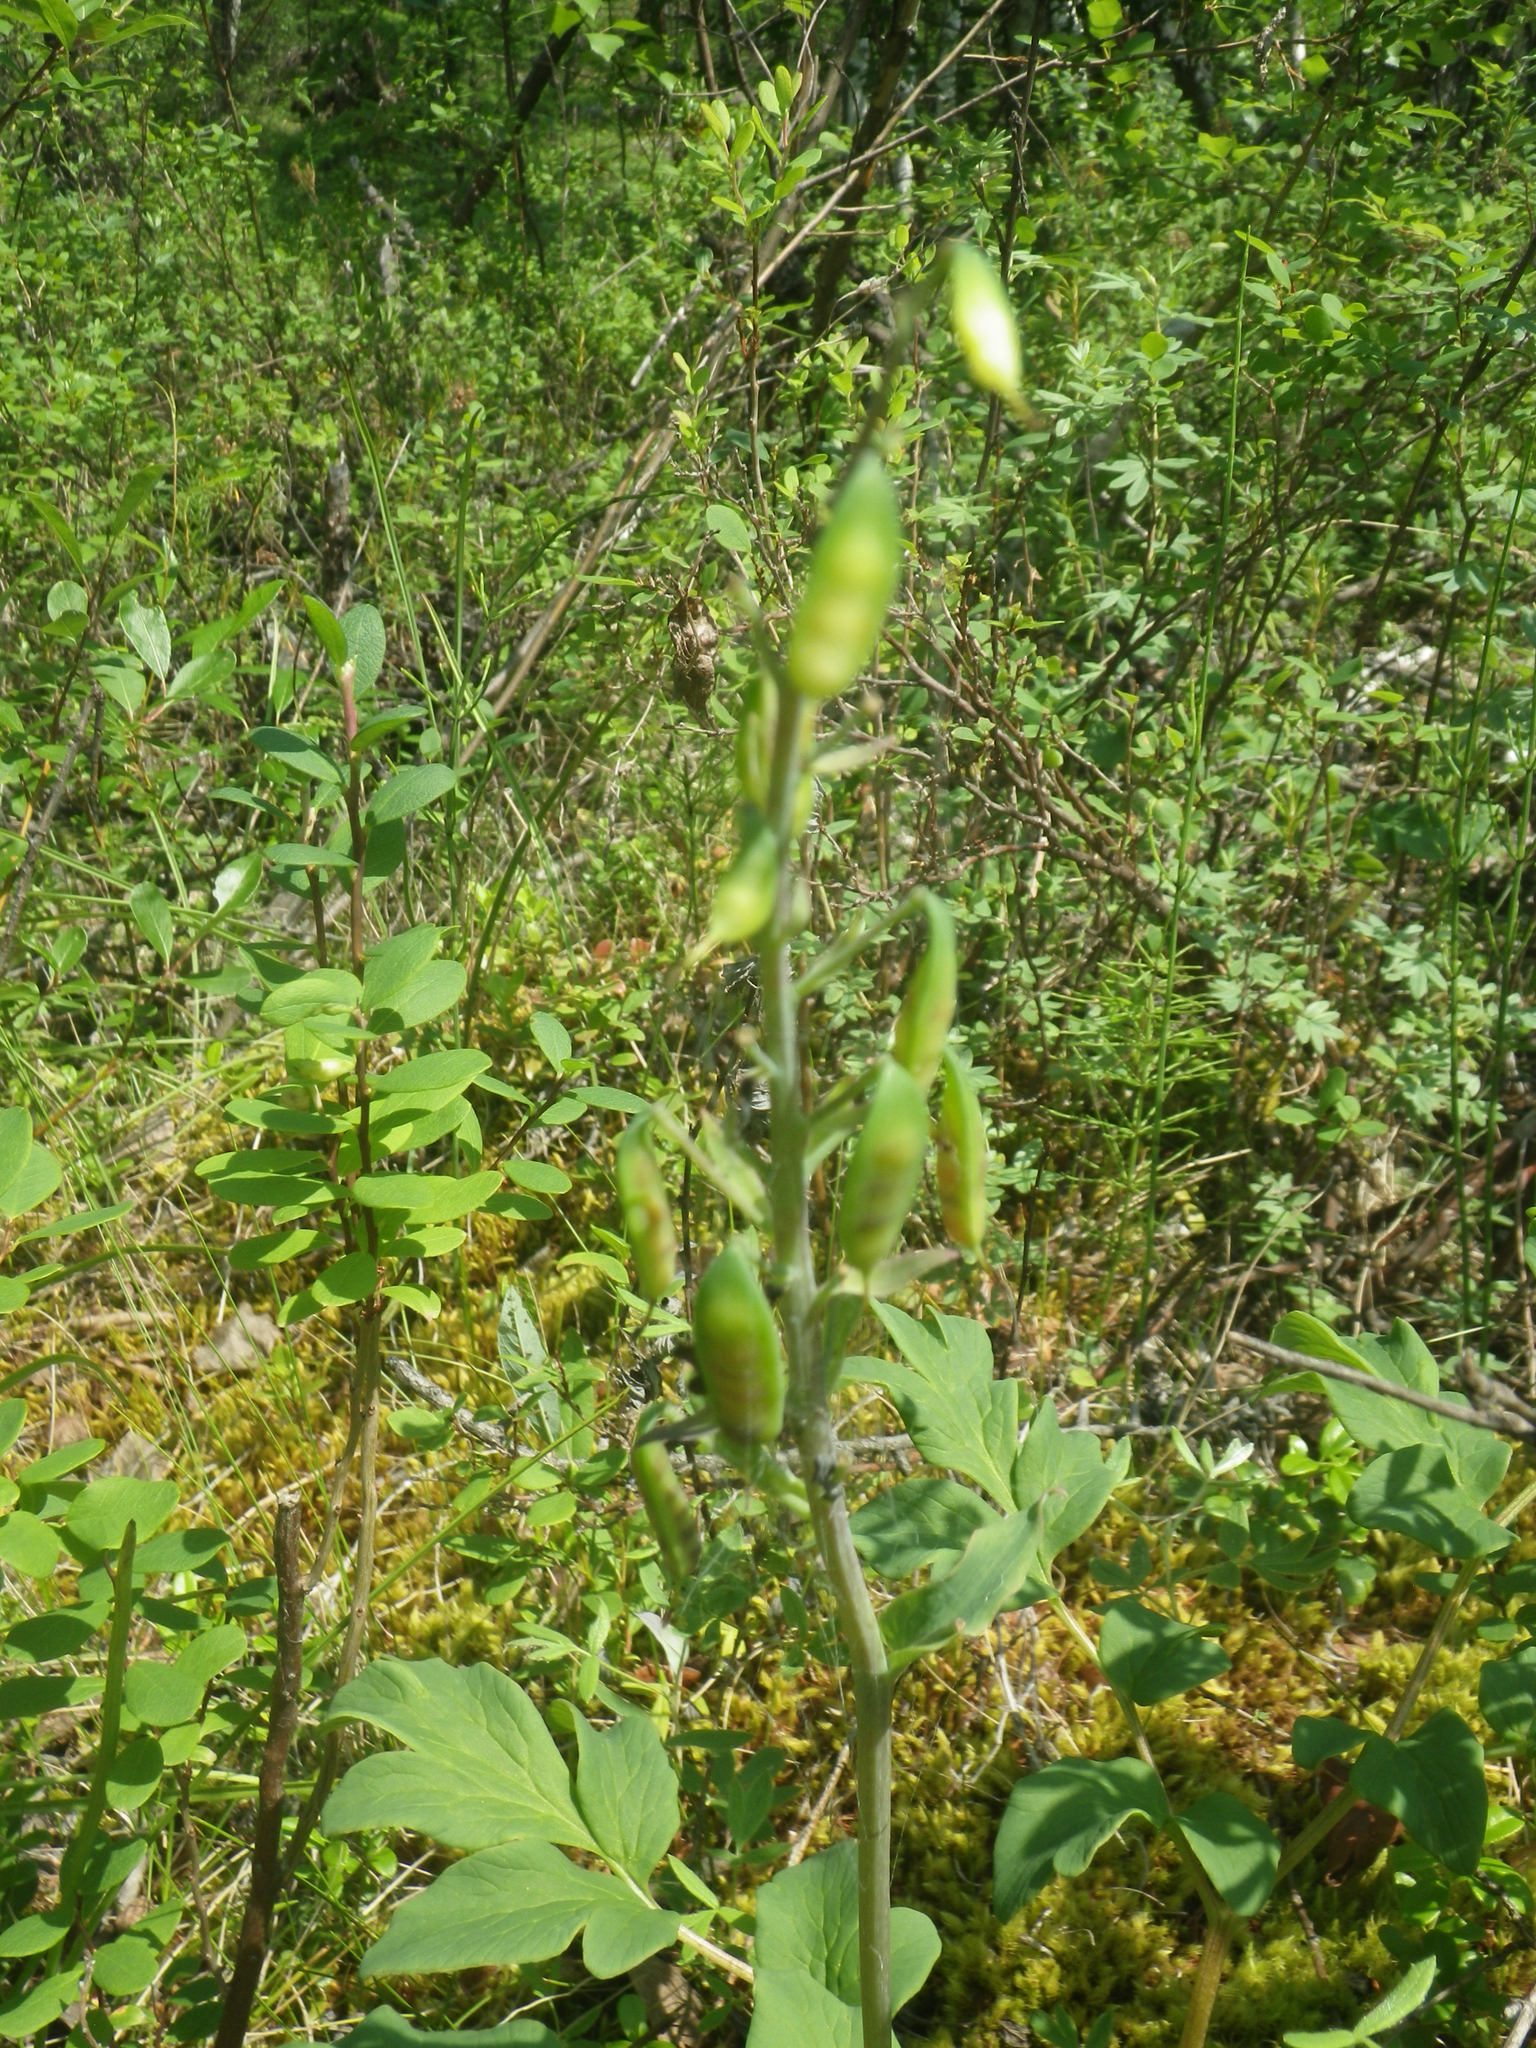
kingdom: Plantae
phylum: Tracheophyta
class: Magnoliopsida
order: Ranunculales
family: Papaveraceae
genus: Corydalis
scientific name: Corydalis paeoniifolia
